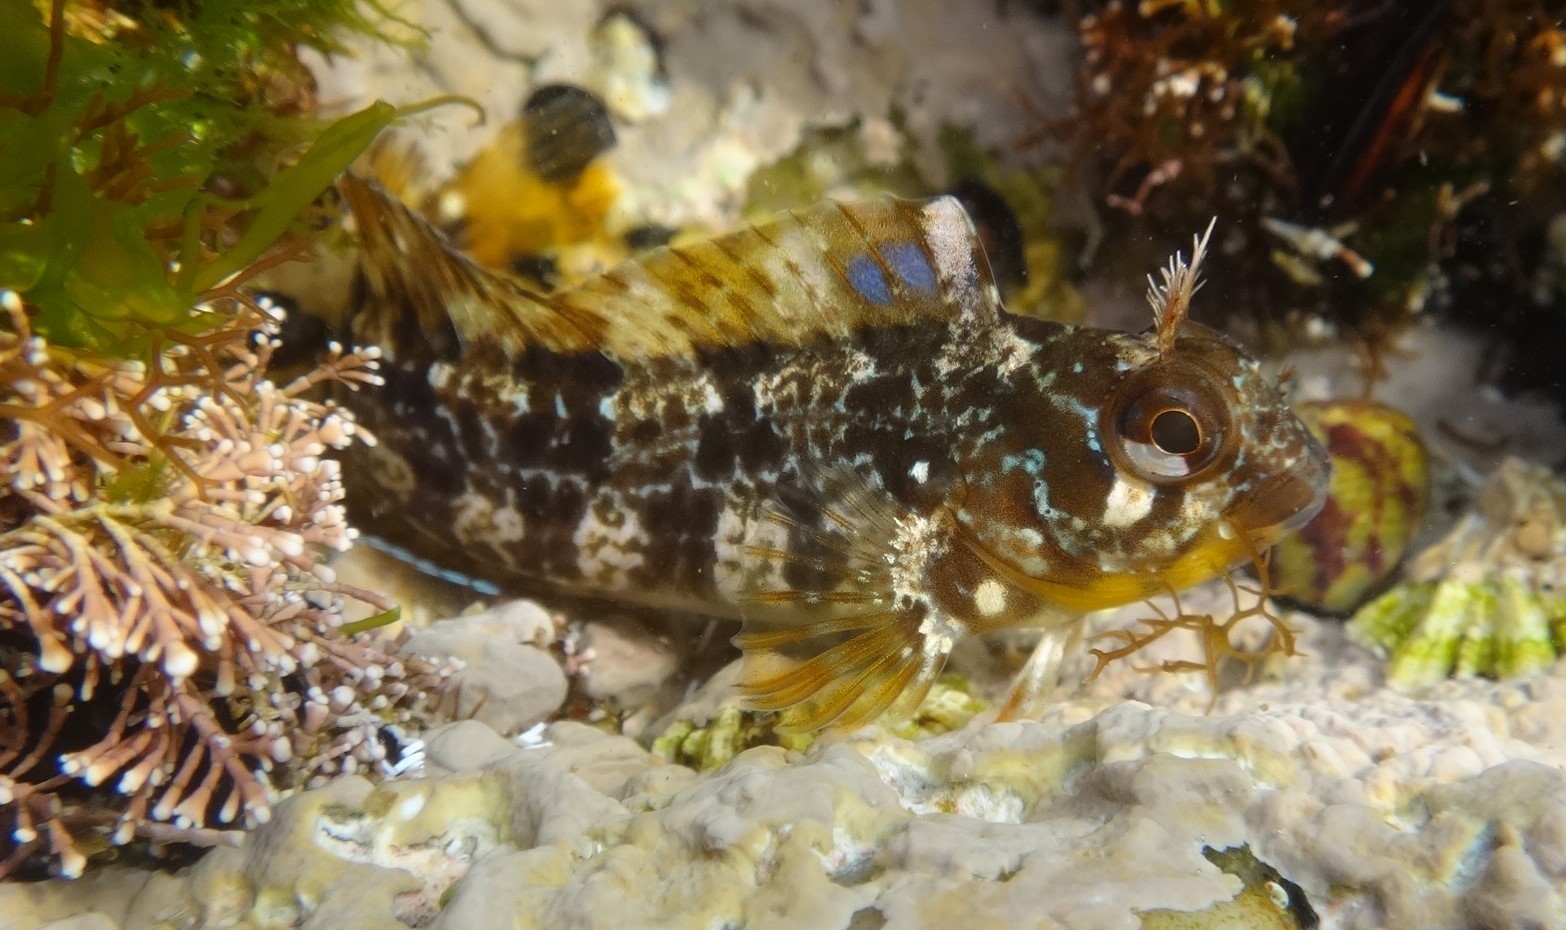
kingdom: Animalia
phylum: Chordata
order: Perciformes
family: Blenniidae
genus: Parablennius
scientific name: Parablennius gattorugine
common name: Tompot blenny
